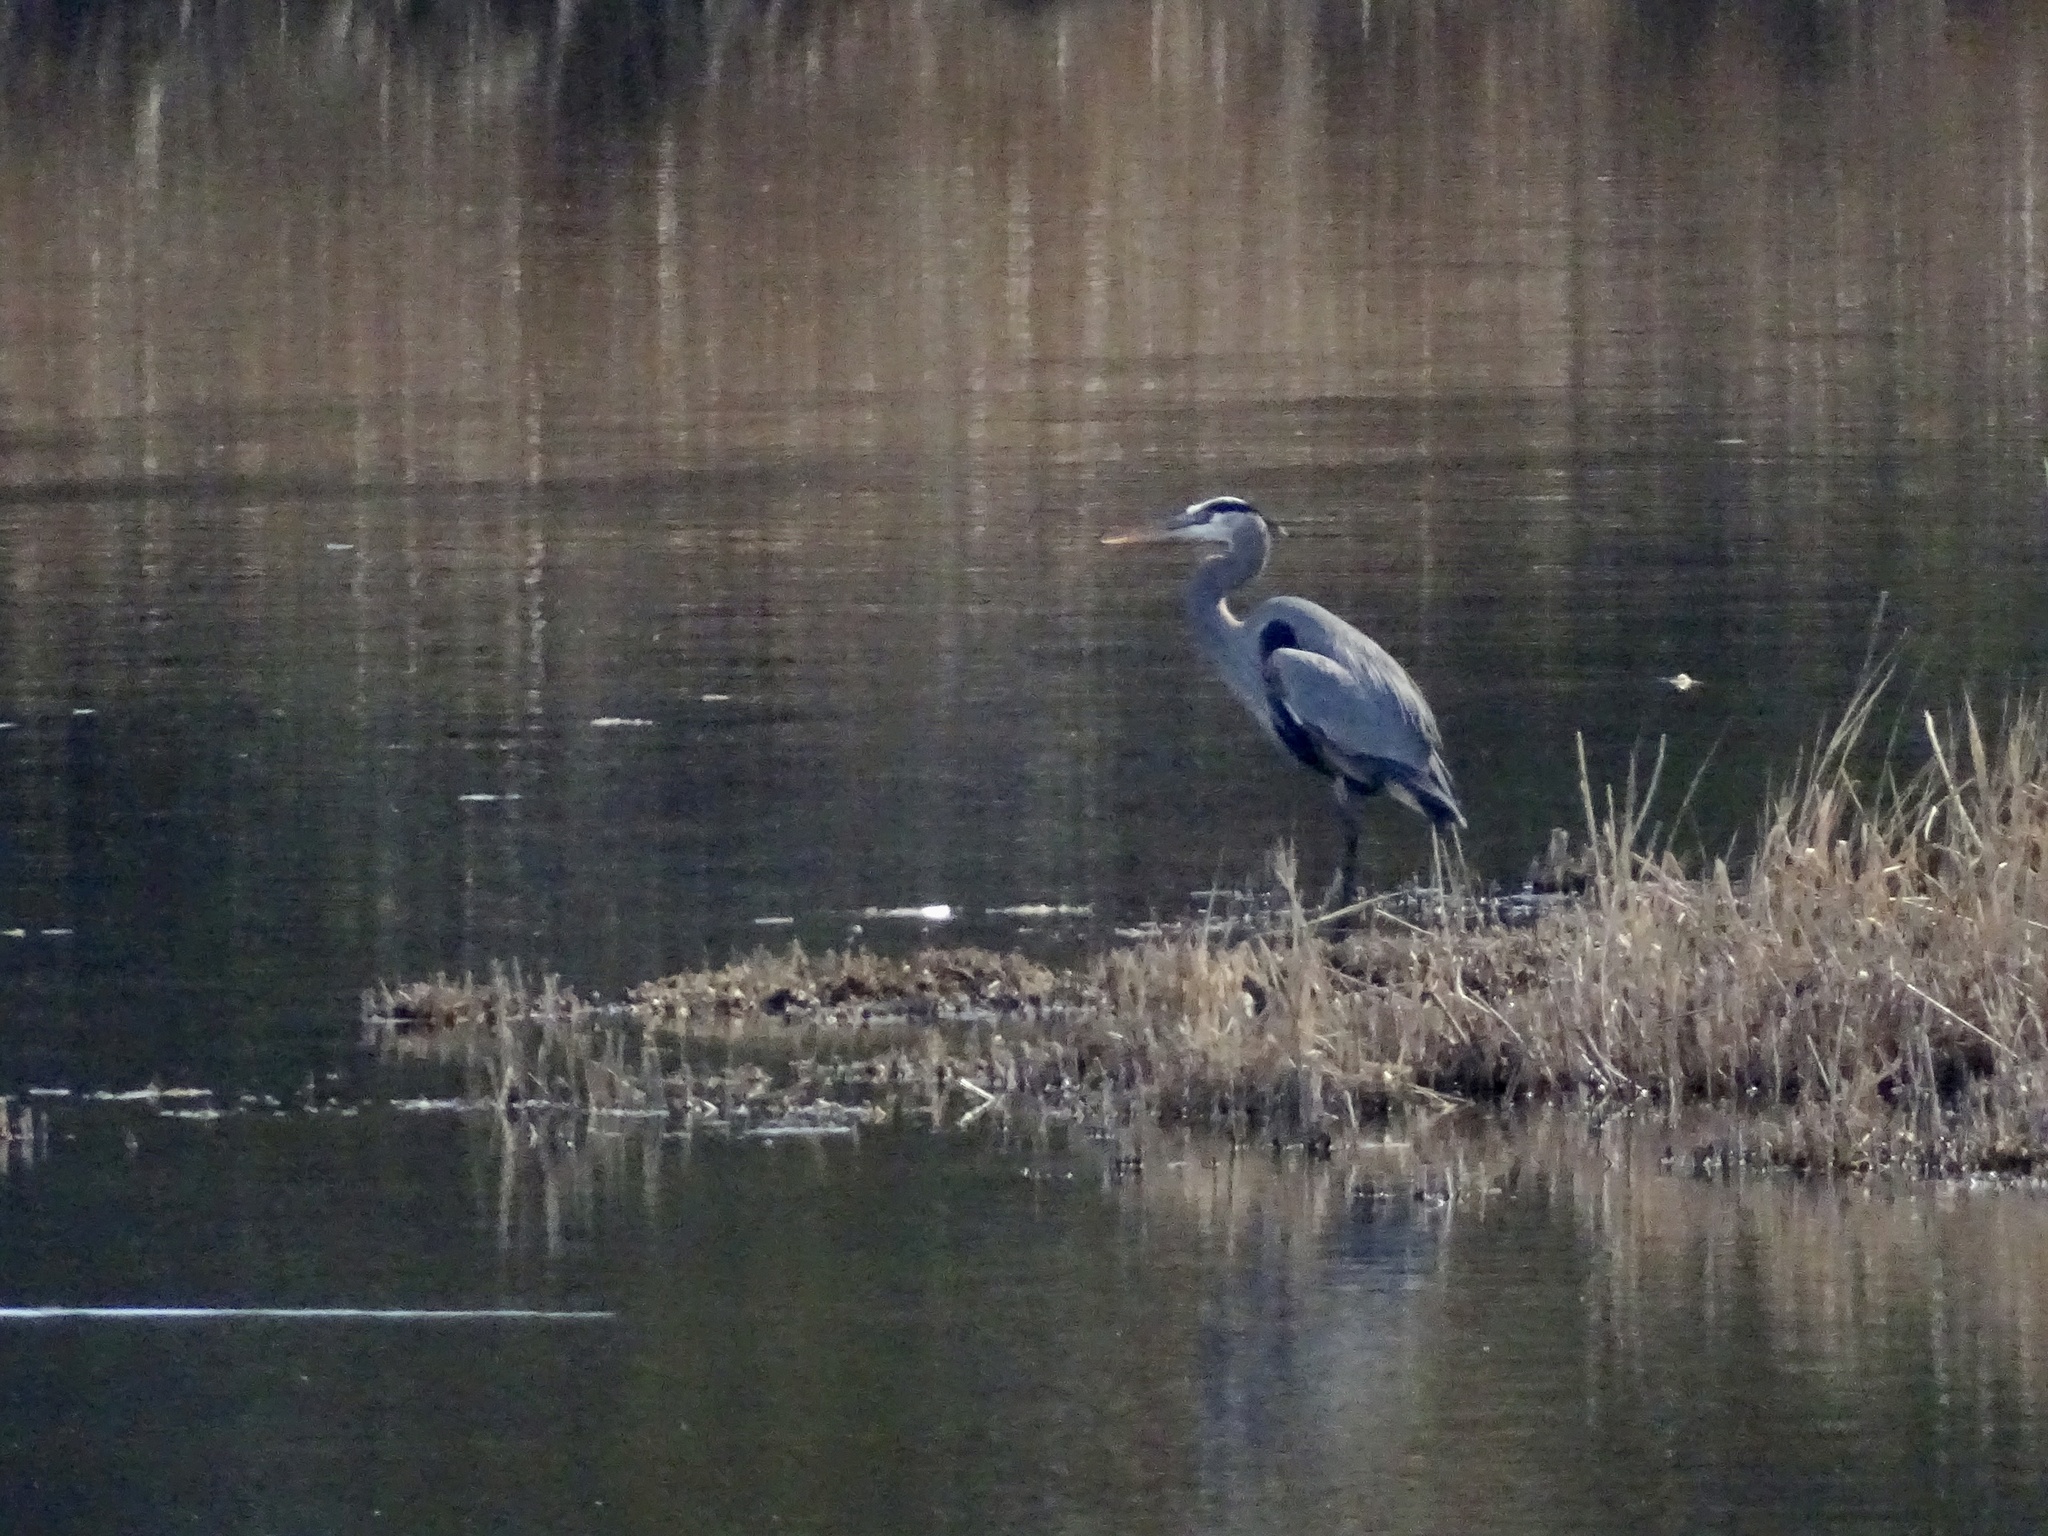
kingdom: Animalia
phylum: Chordata
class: Aves
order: Pelecaniformes
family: Ardeidae
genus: Ardea
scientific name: Ardea herodias
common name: Great blue heron
